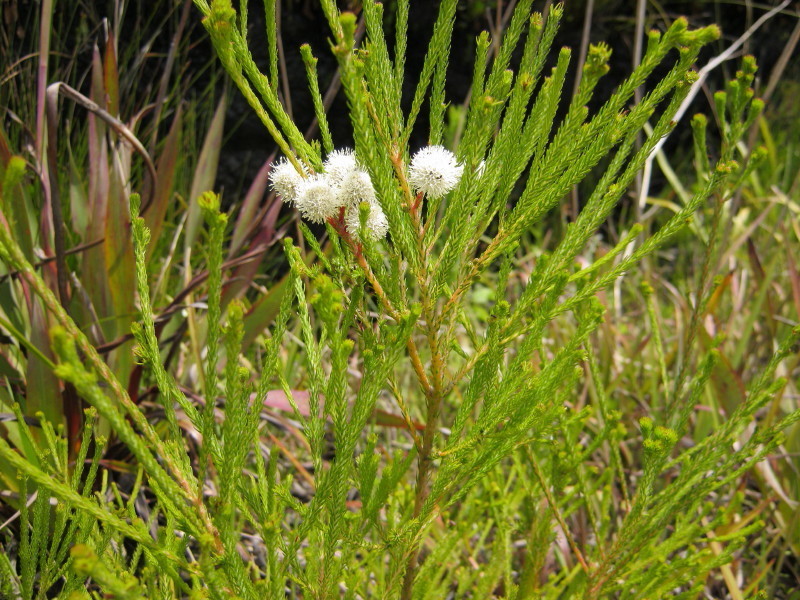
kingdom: Plantae
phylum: Tracheophyta
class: Magnoliopsida
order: Bruniales
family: Bruniaceae
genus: Berzelia
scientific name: Berzelia intermedia
